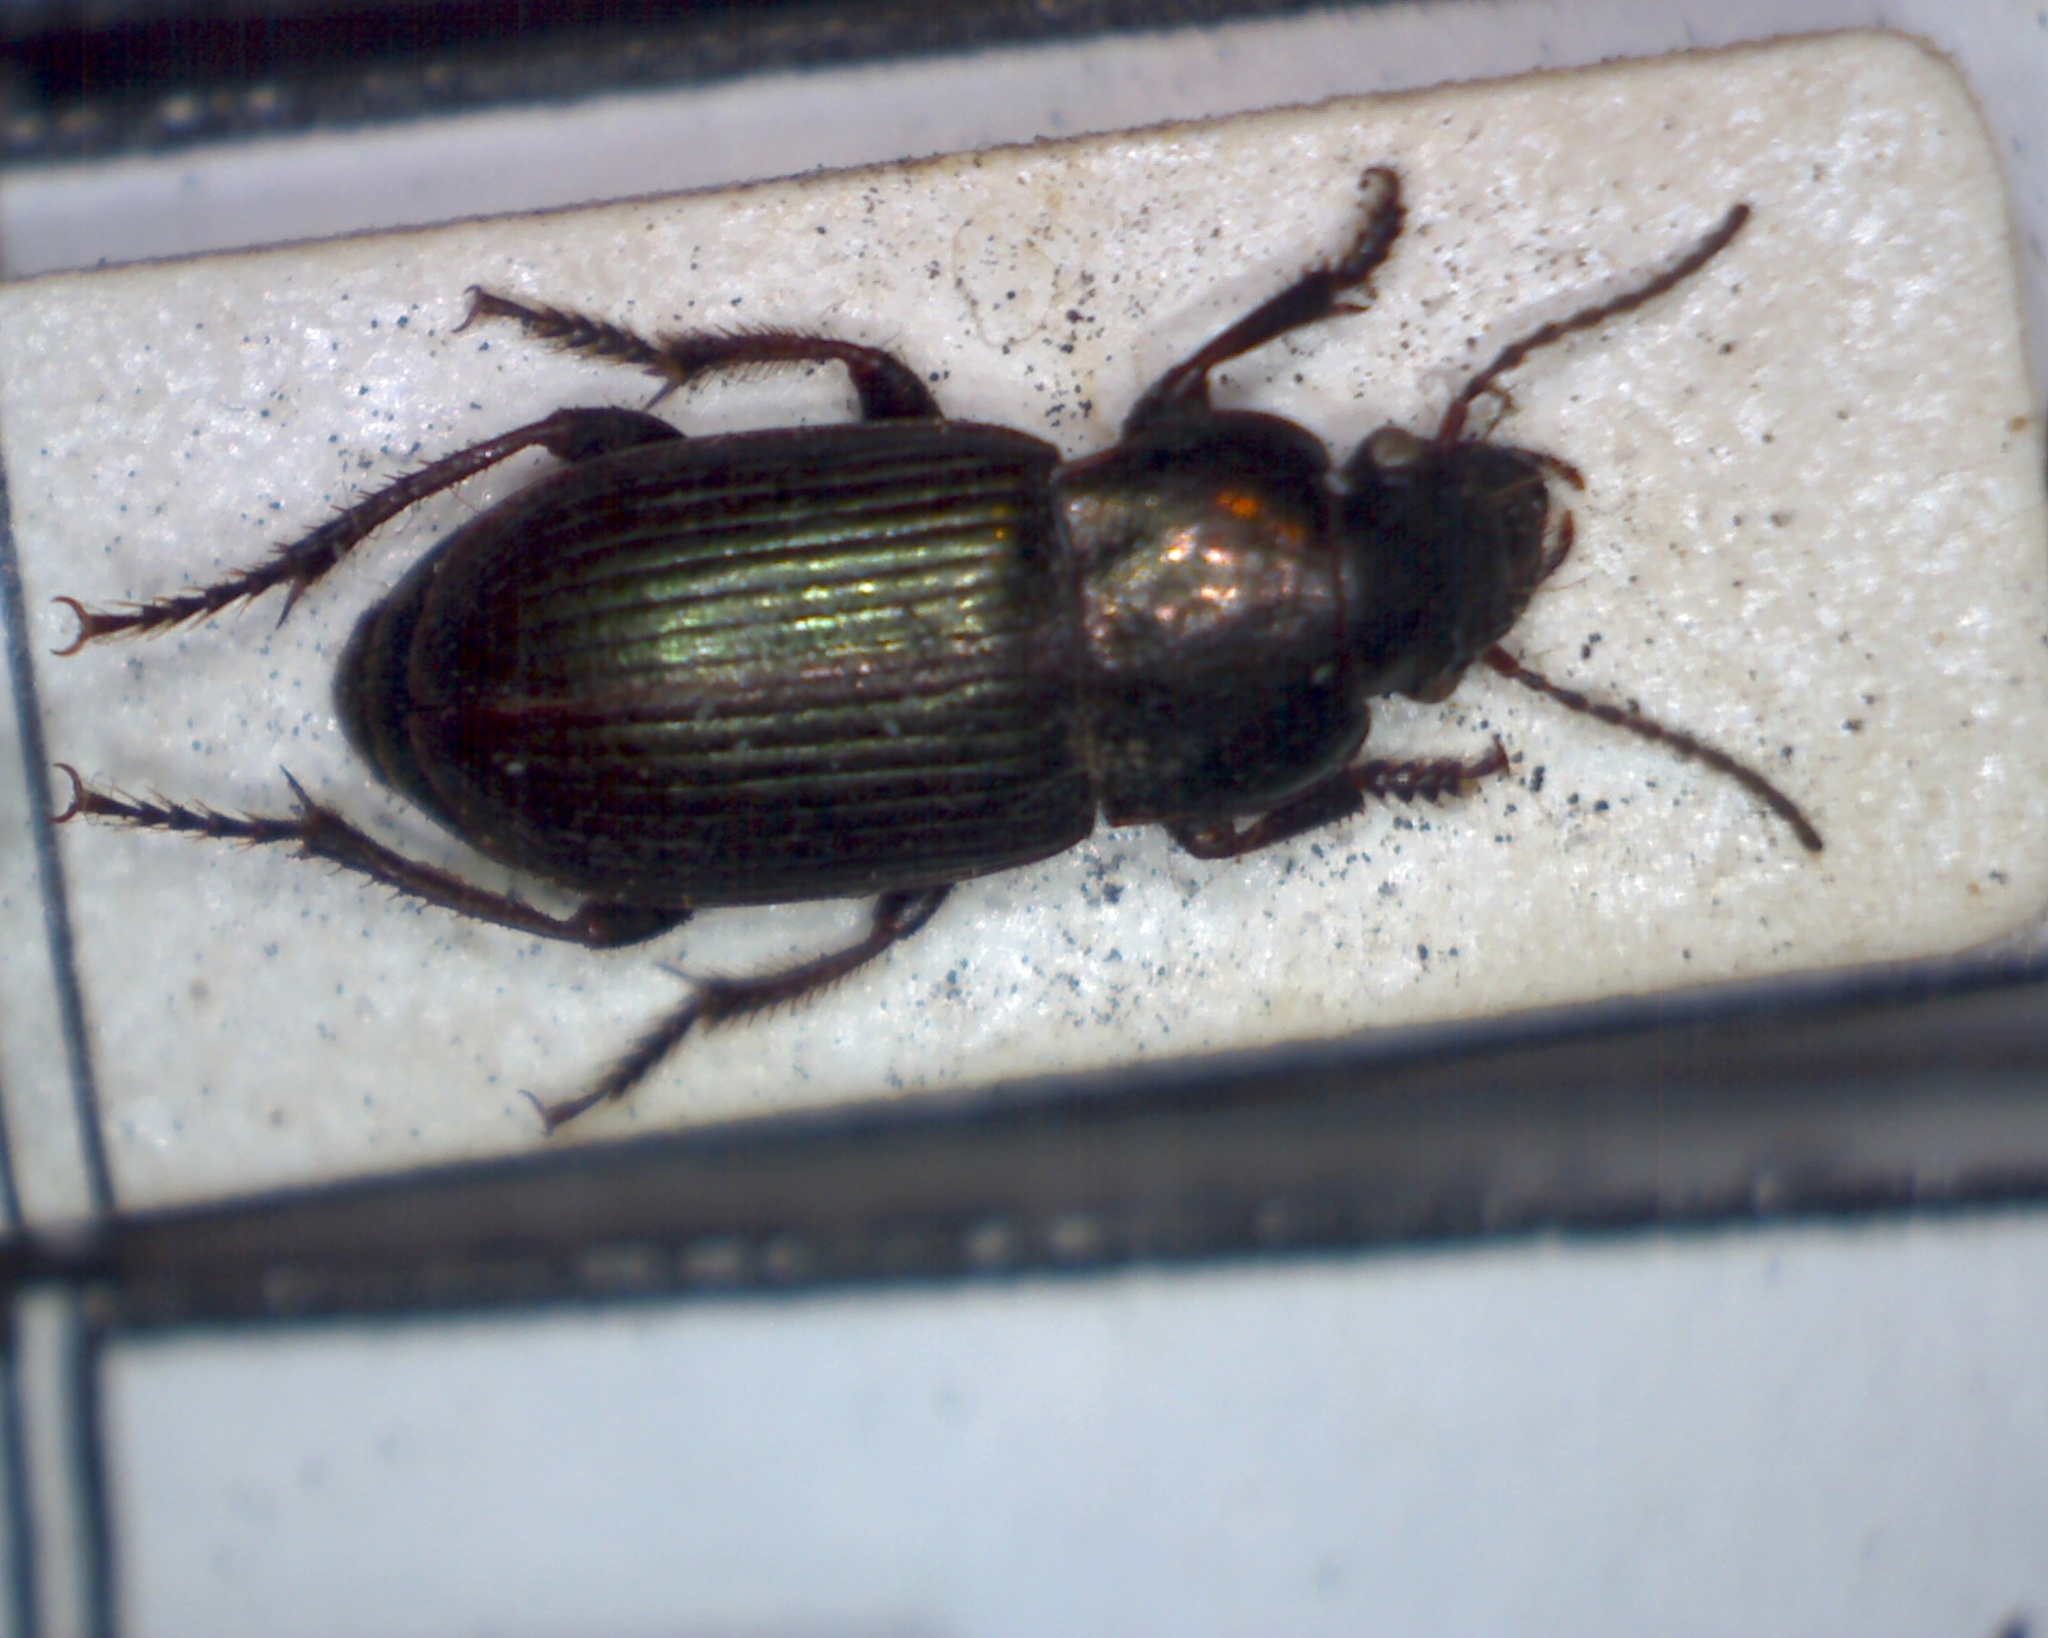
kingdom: Animalia
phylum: Arthropoda
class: Insecta
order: Coleoptera
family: Carabidae
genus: Harpalus
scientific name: Harpalus distinguendus
